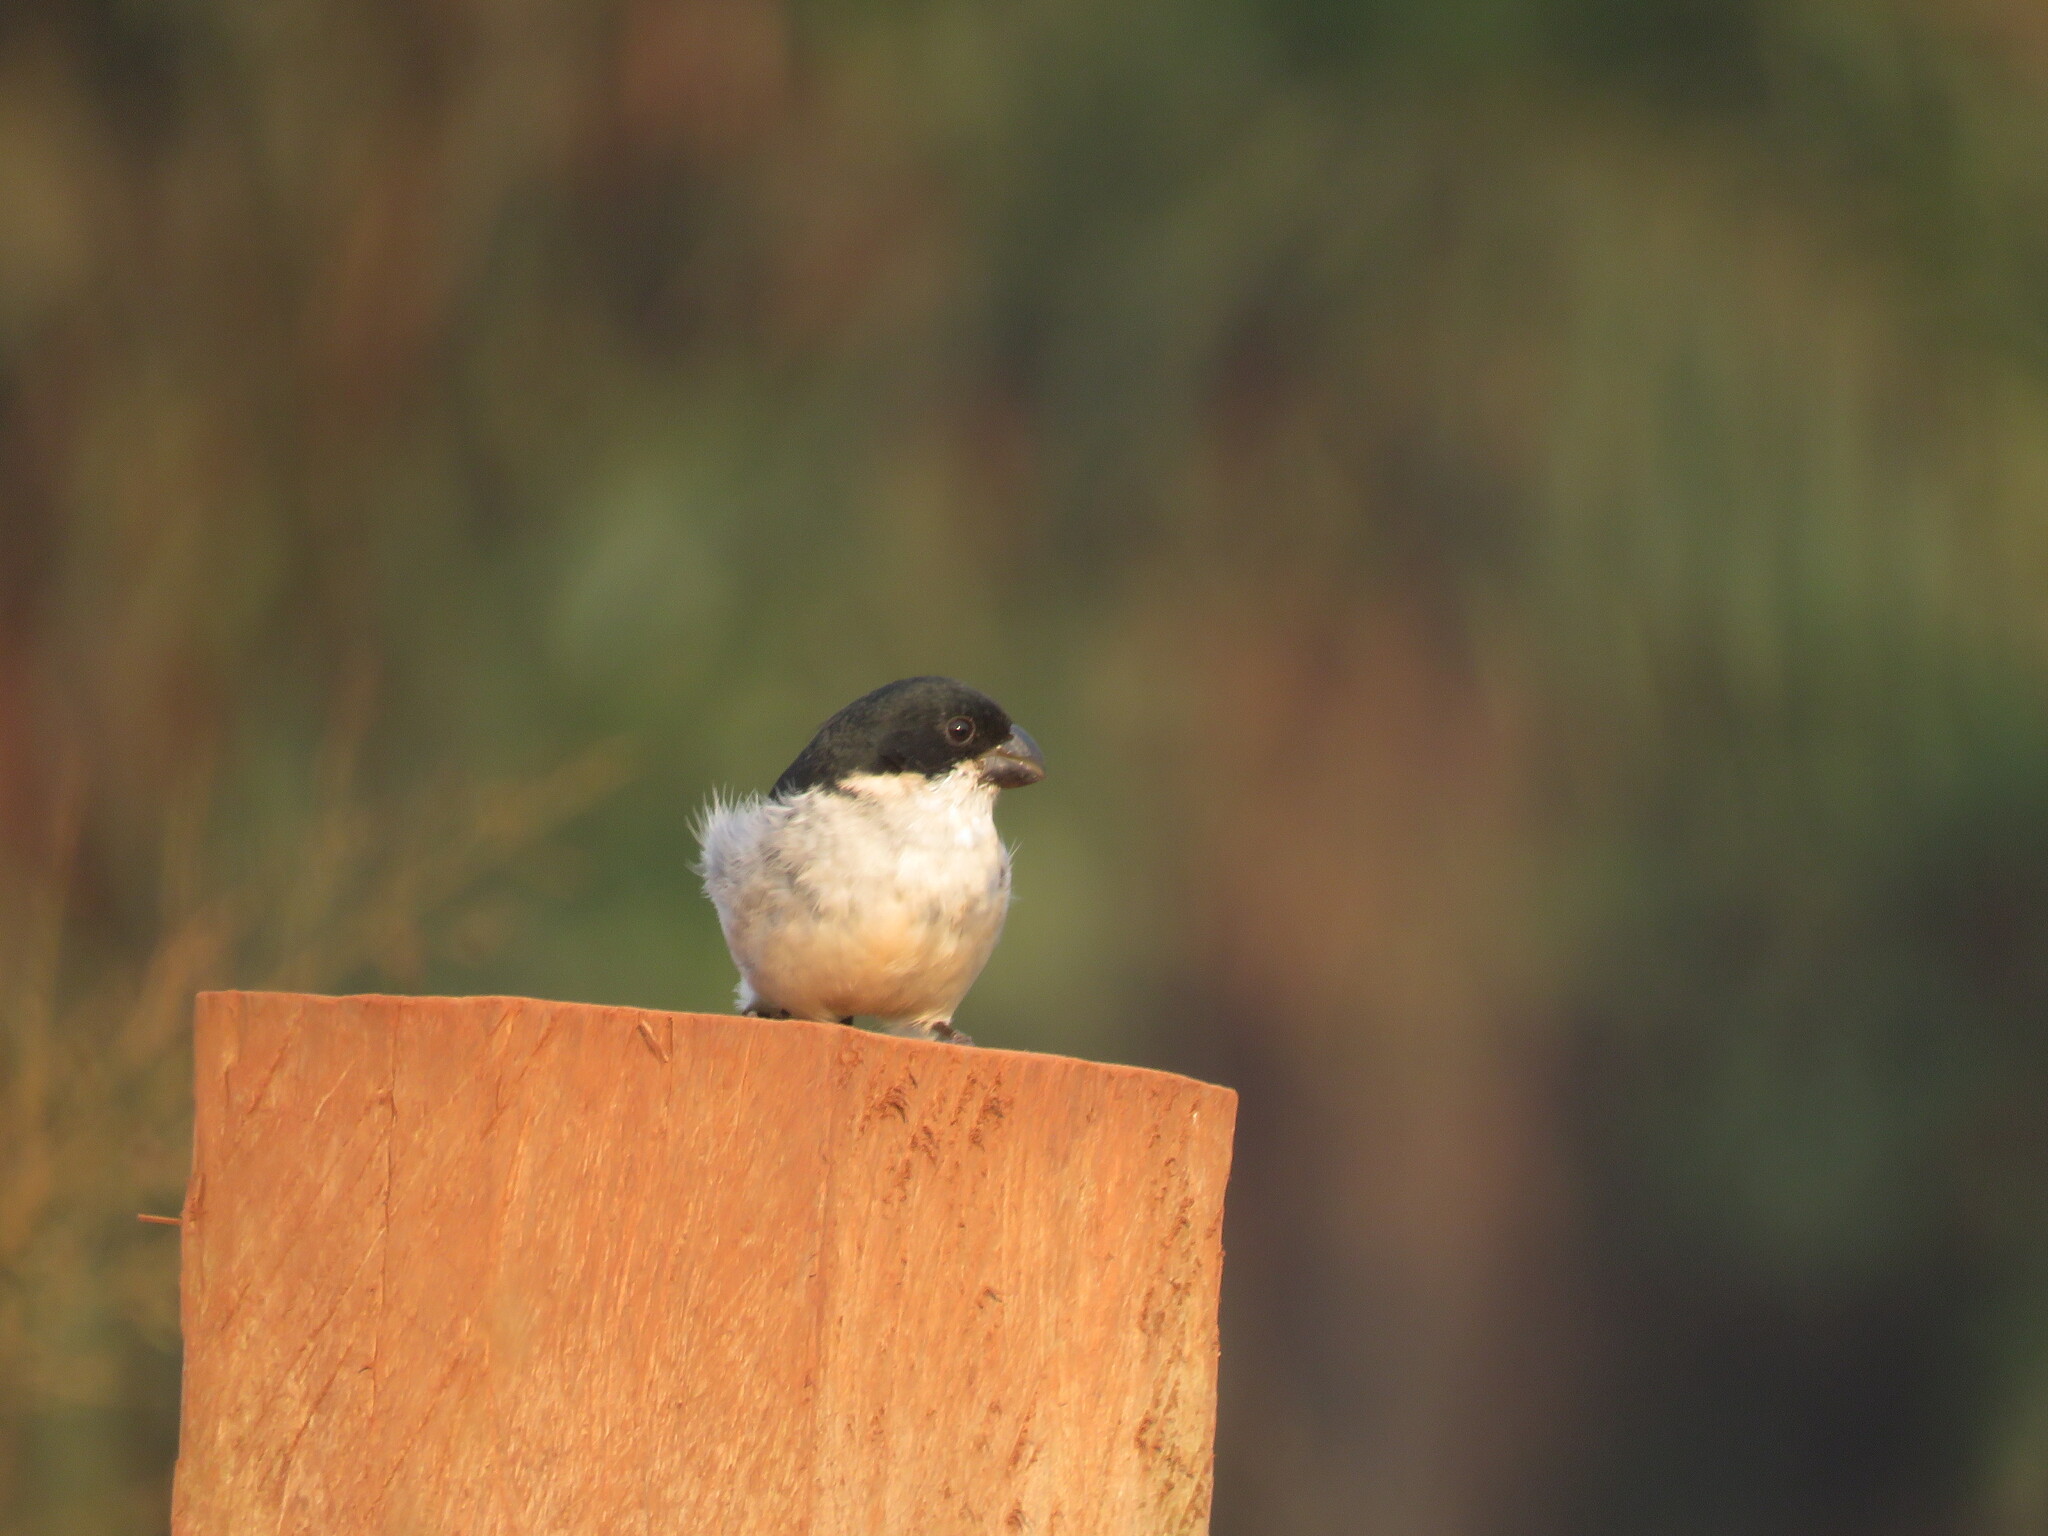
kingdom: Animalia
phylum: Chordata
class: Aves
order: Passeriformes
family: Thraupidae
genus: Sporophila
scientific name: Sporophila americana
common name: Wing-barred seedeater
